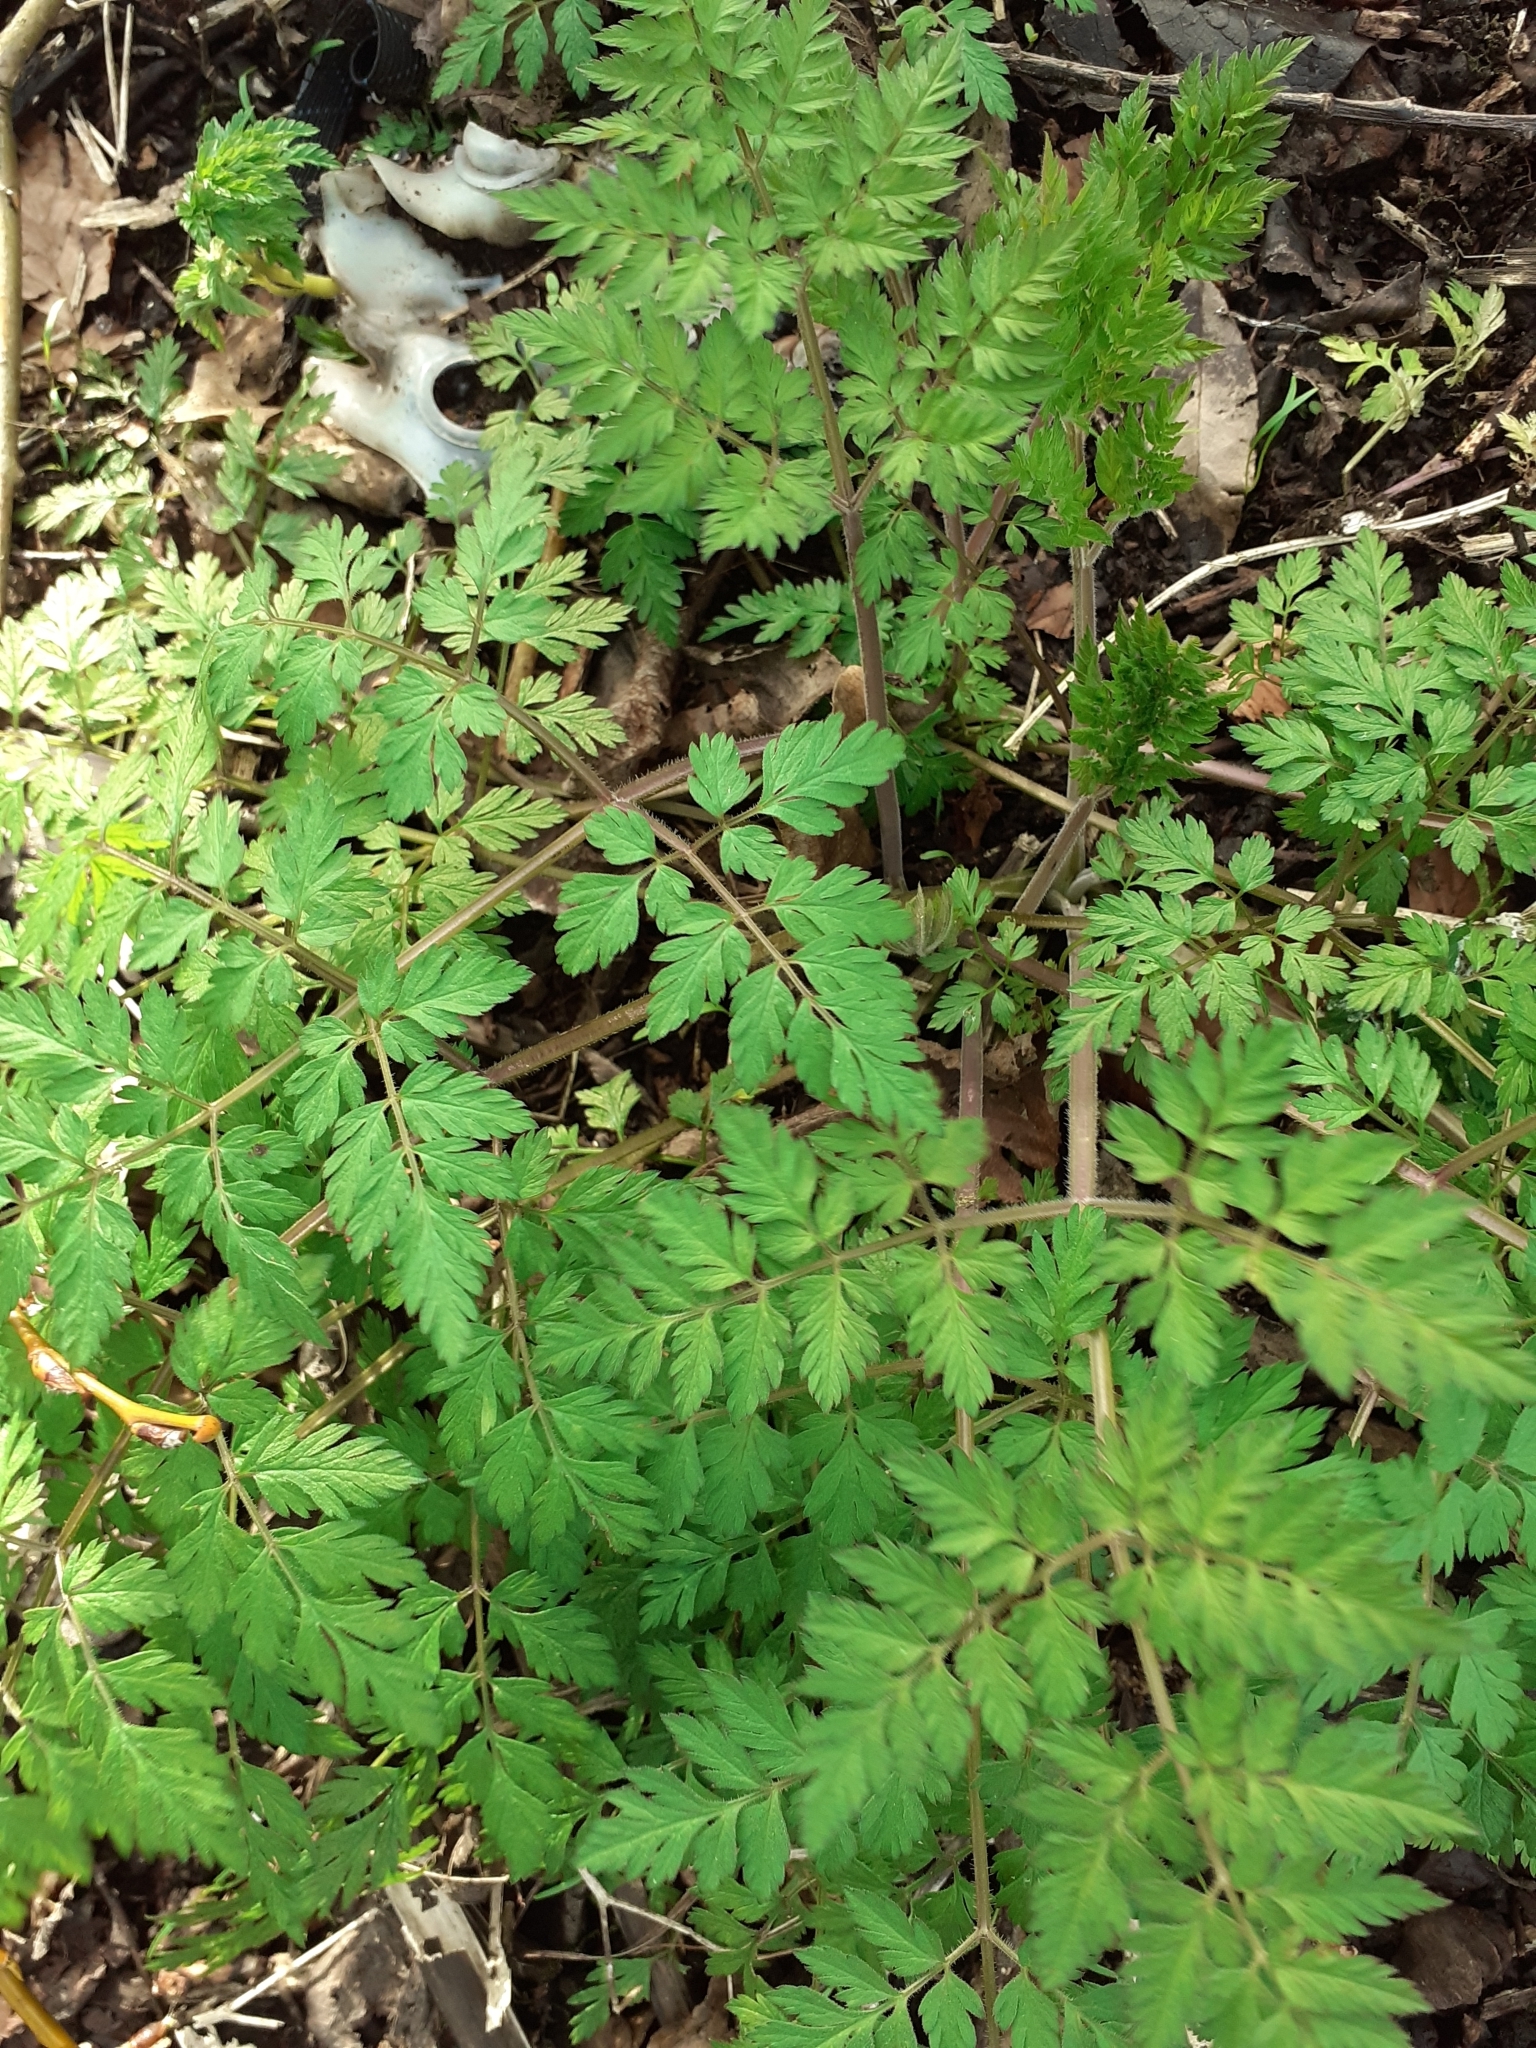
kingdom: Plantae
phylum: Tracheophyta
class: Magnoliopsida
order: Apiales
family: Apiaceae
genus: Anthriscus
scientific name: Anthriscus sylvestris
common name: Cow parsley
